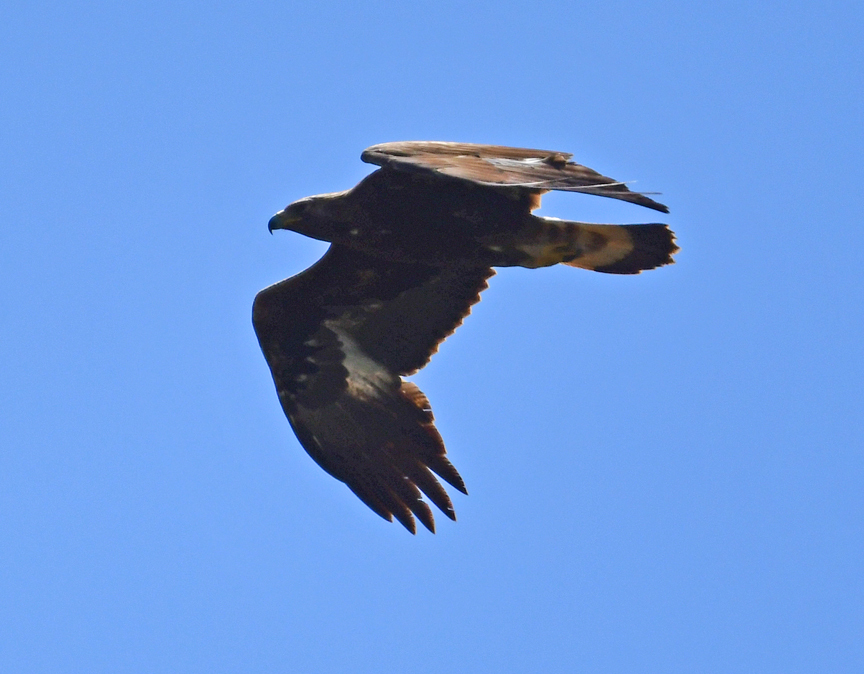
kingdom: Animalia
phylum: Chordata
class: Aves
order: Accipitriformes
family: Accipitridae
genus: Aquila
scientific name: Aquila chrysaetos
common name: Golden eagle
